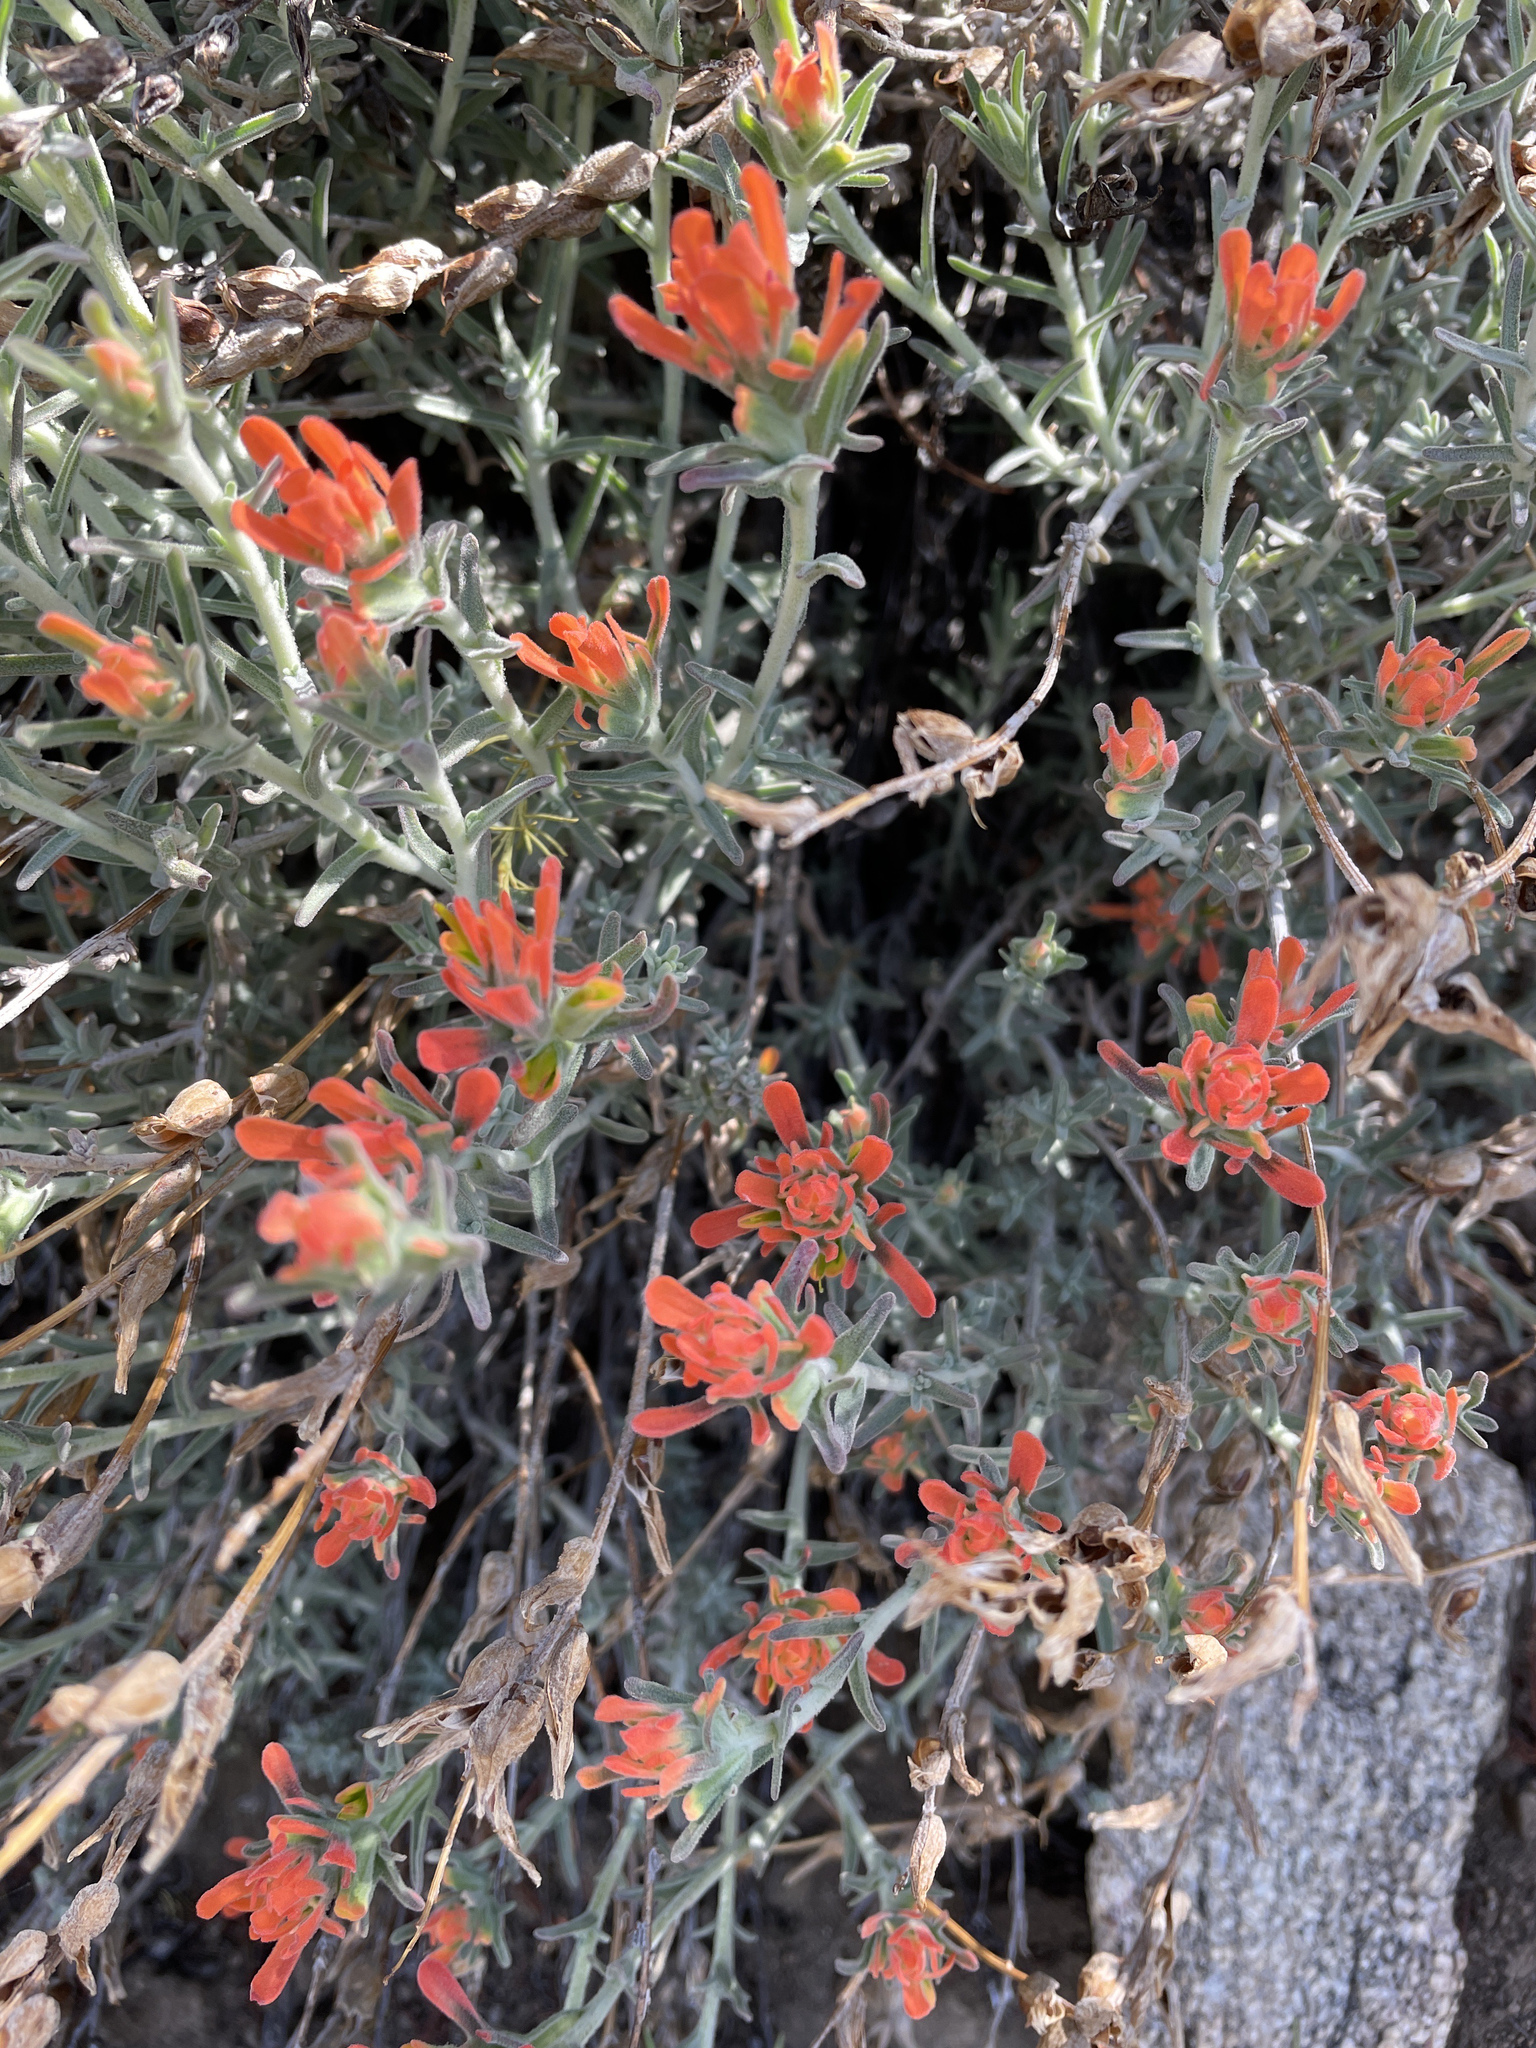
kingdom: Plantae
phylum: Tracheophyta
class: Magnoliopsida
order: Lamiales
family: Orobanchaceae
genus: Castilleja
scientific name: Castilleja foliolosa
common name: Woolly indian paintbrush
